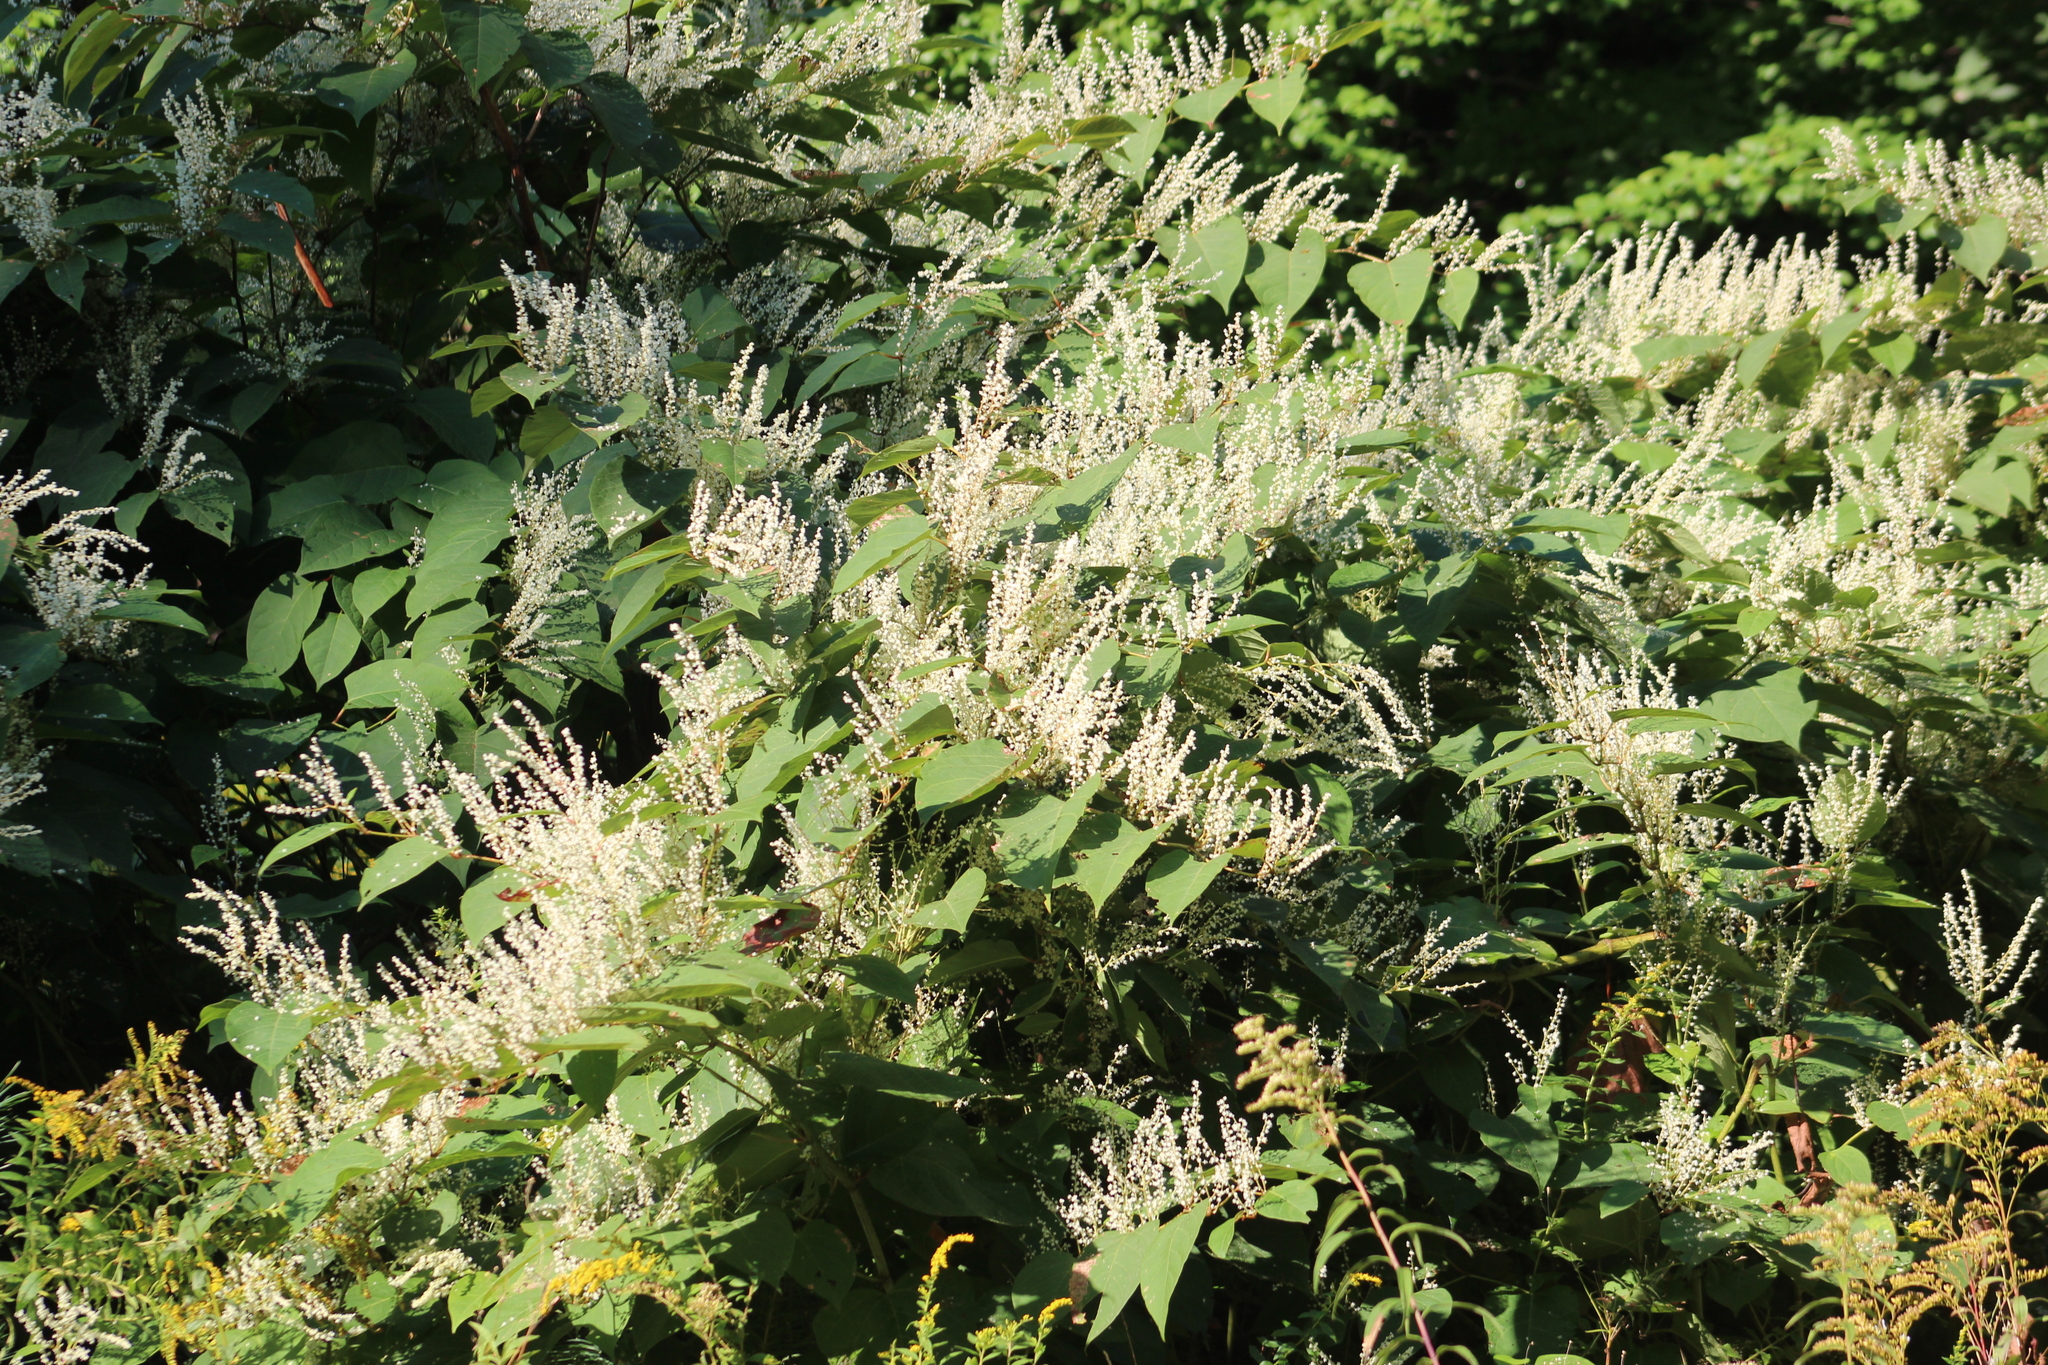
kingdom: Plantae
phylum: Tracheophyta
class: Magnoliopsida
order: Caryophyllales
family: Polygonaceae
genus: Reynoutria
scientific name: Reynoutria japonica
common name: Japanese knotweed
